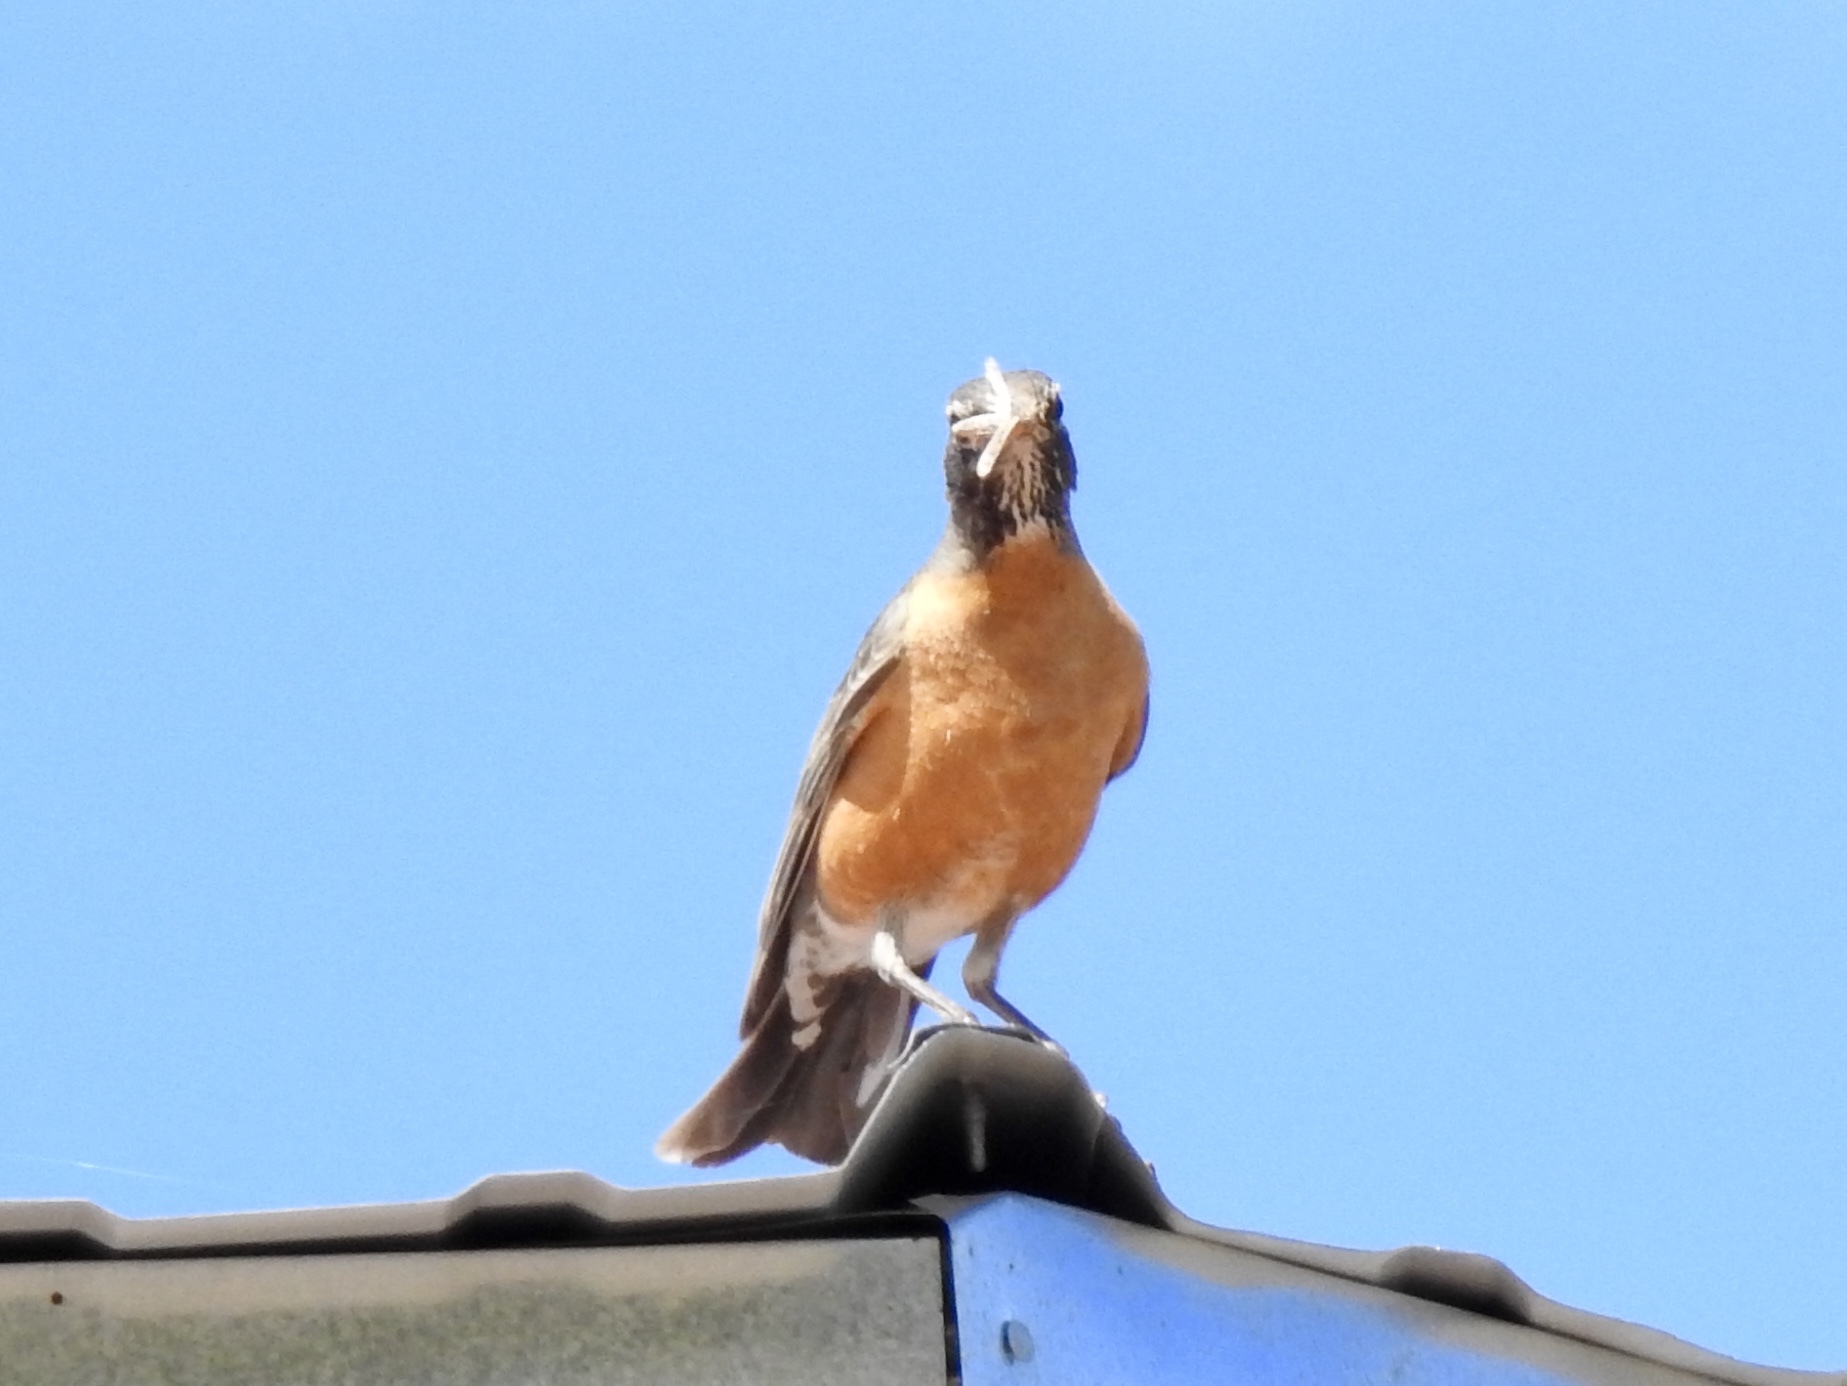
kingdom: Animalia
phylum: Chordata
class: Aves
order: Passeriformes
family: Turdidae
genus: Turdus
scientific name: Turdus migratorius
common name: American robin
